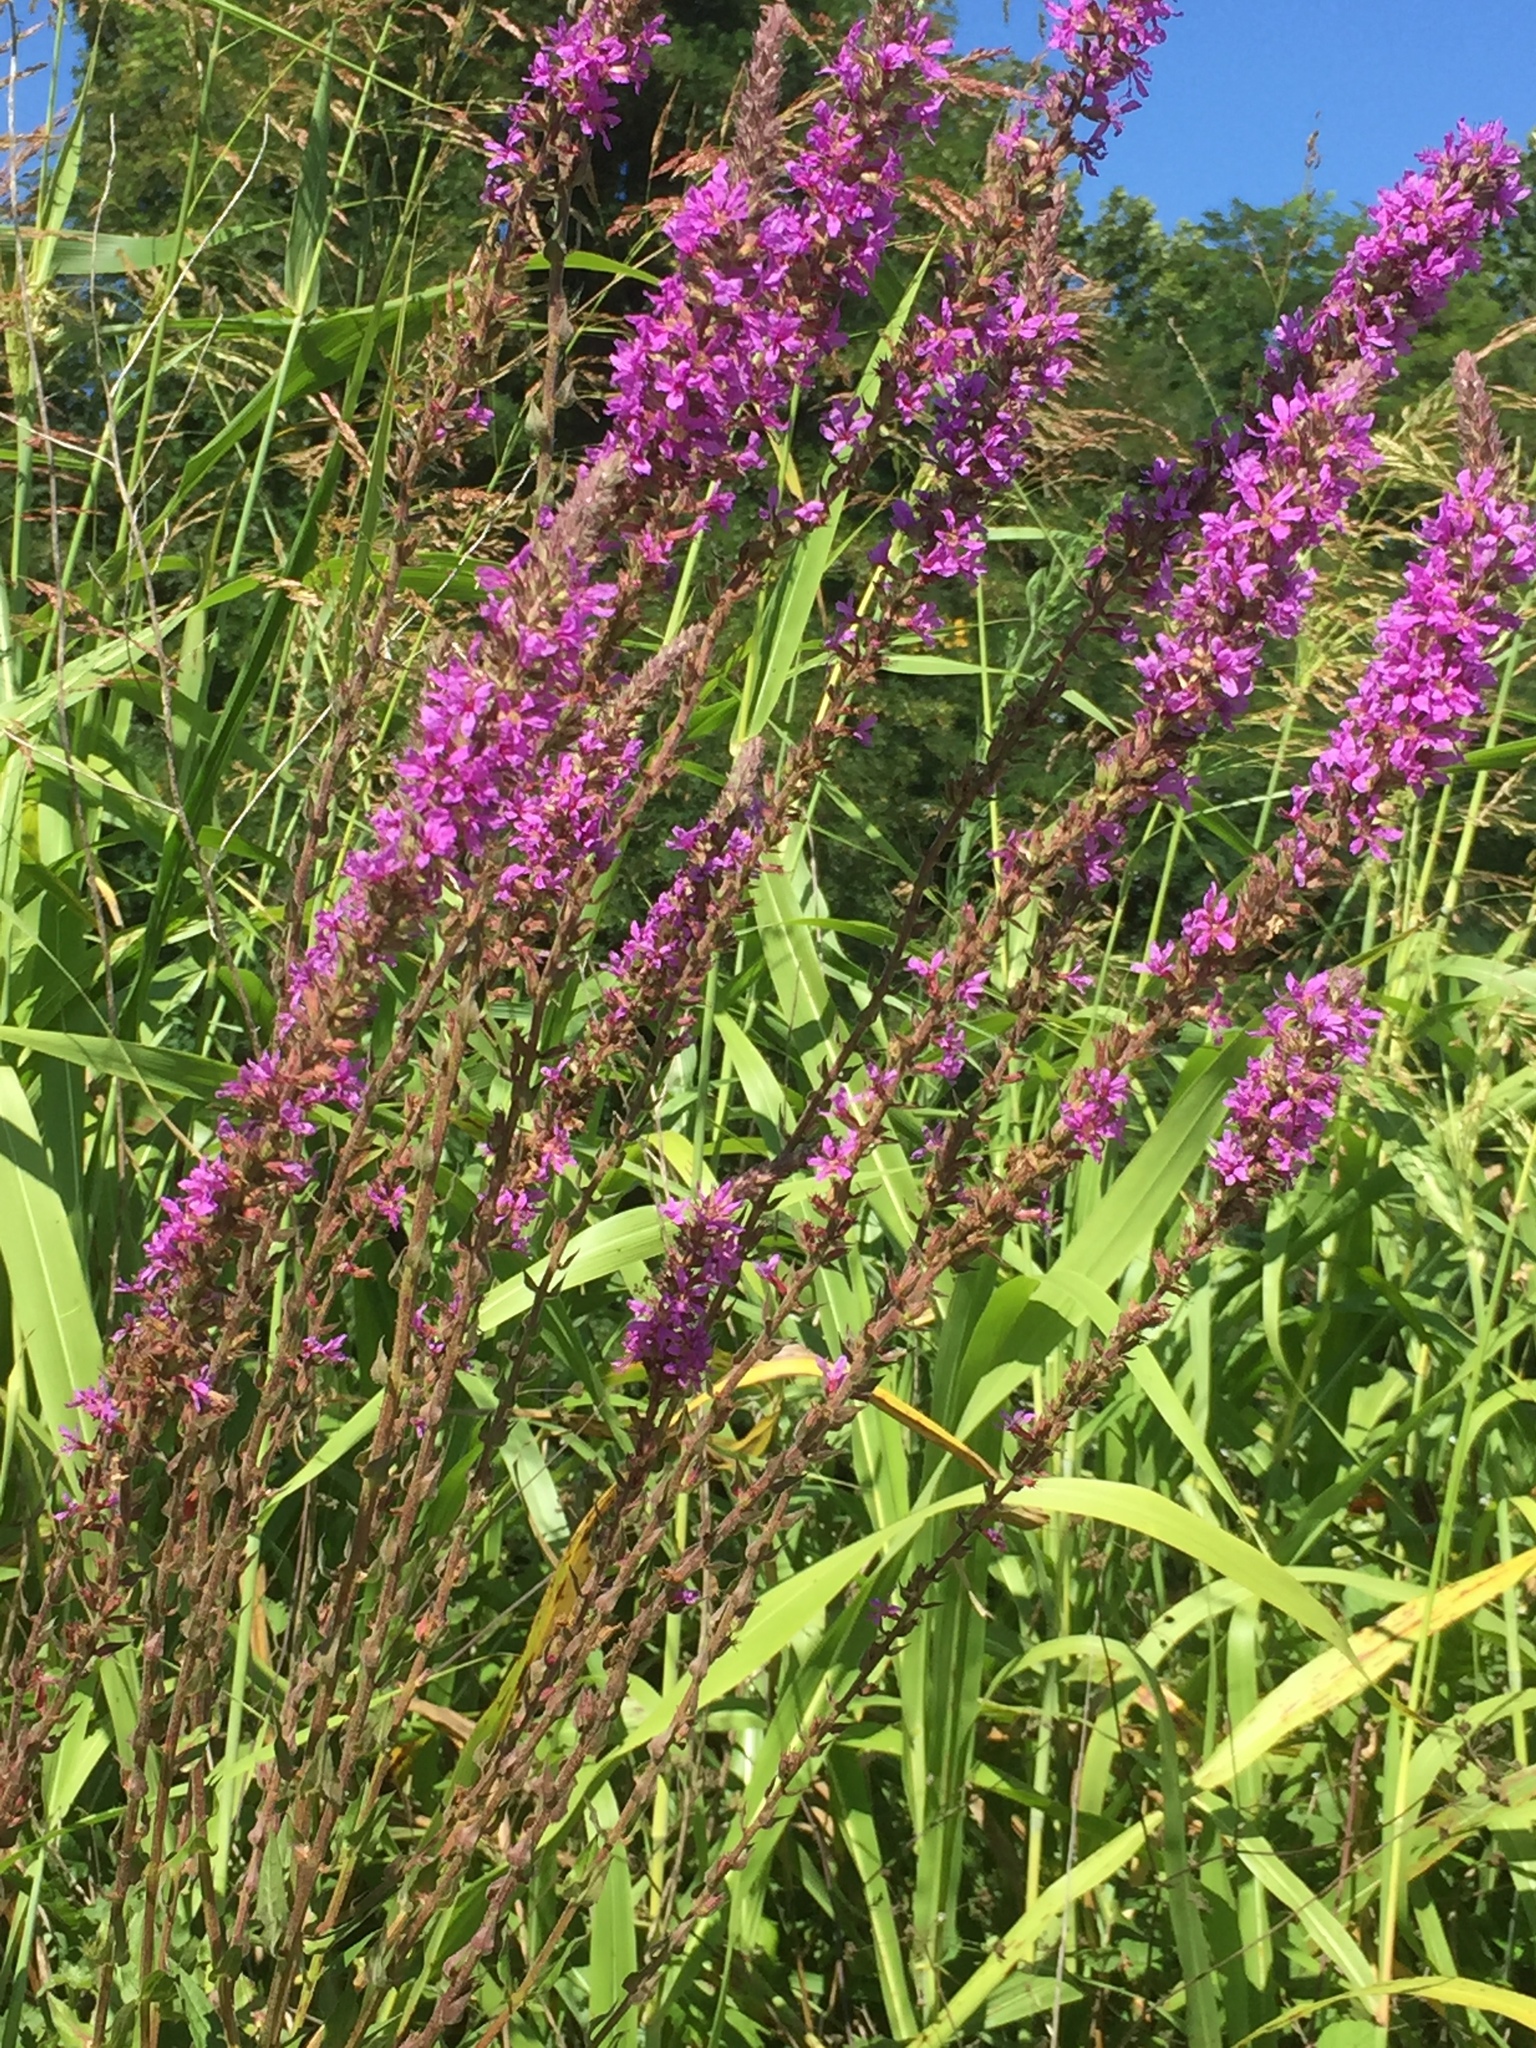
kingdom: Plantae
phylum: Tracheophyta
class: Magnoliopsida
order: Myrtales
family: Lythraceae
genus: Lythrum
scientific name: Lythrum salicaria
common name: Purple loosestrife
